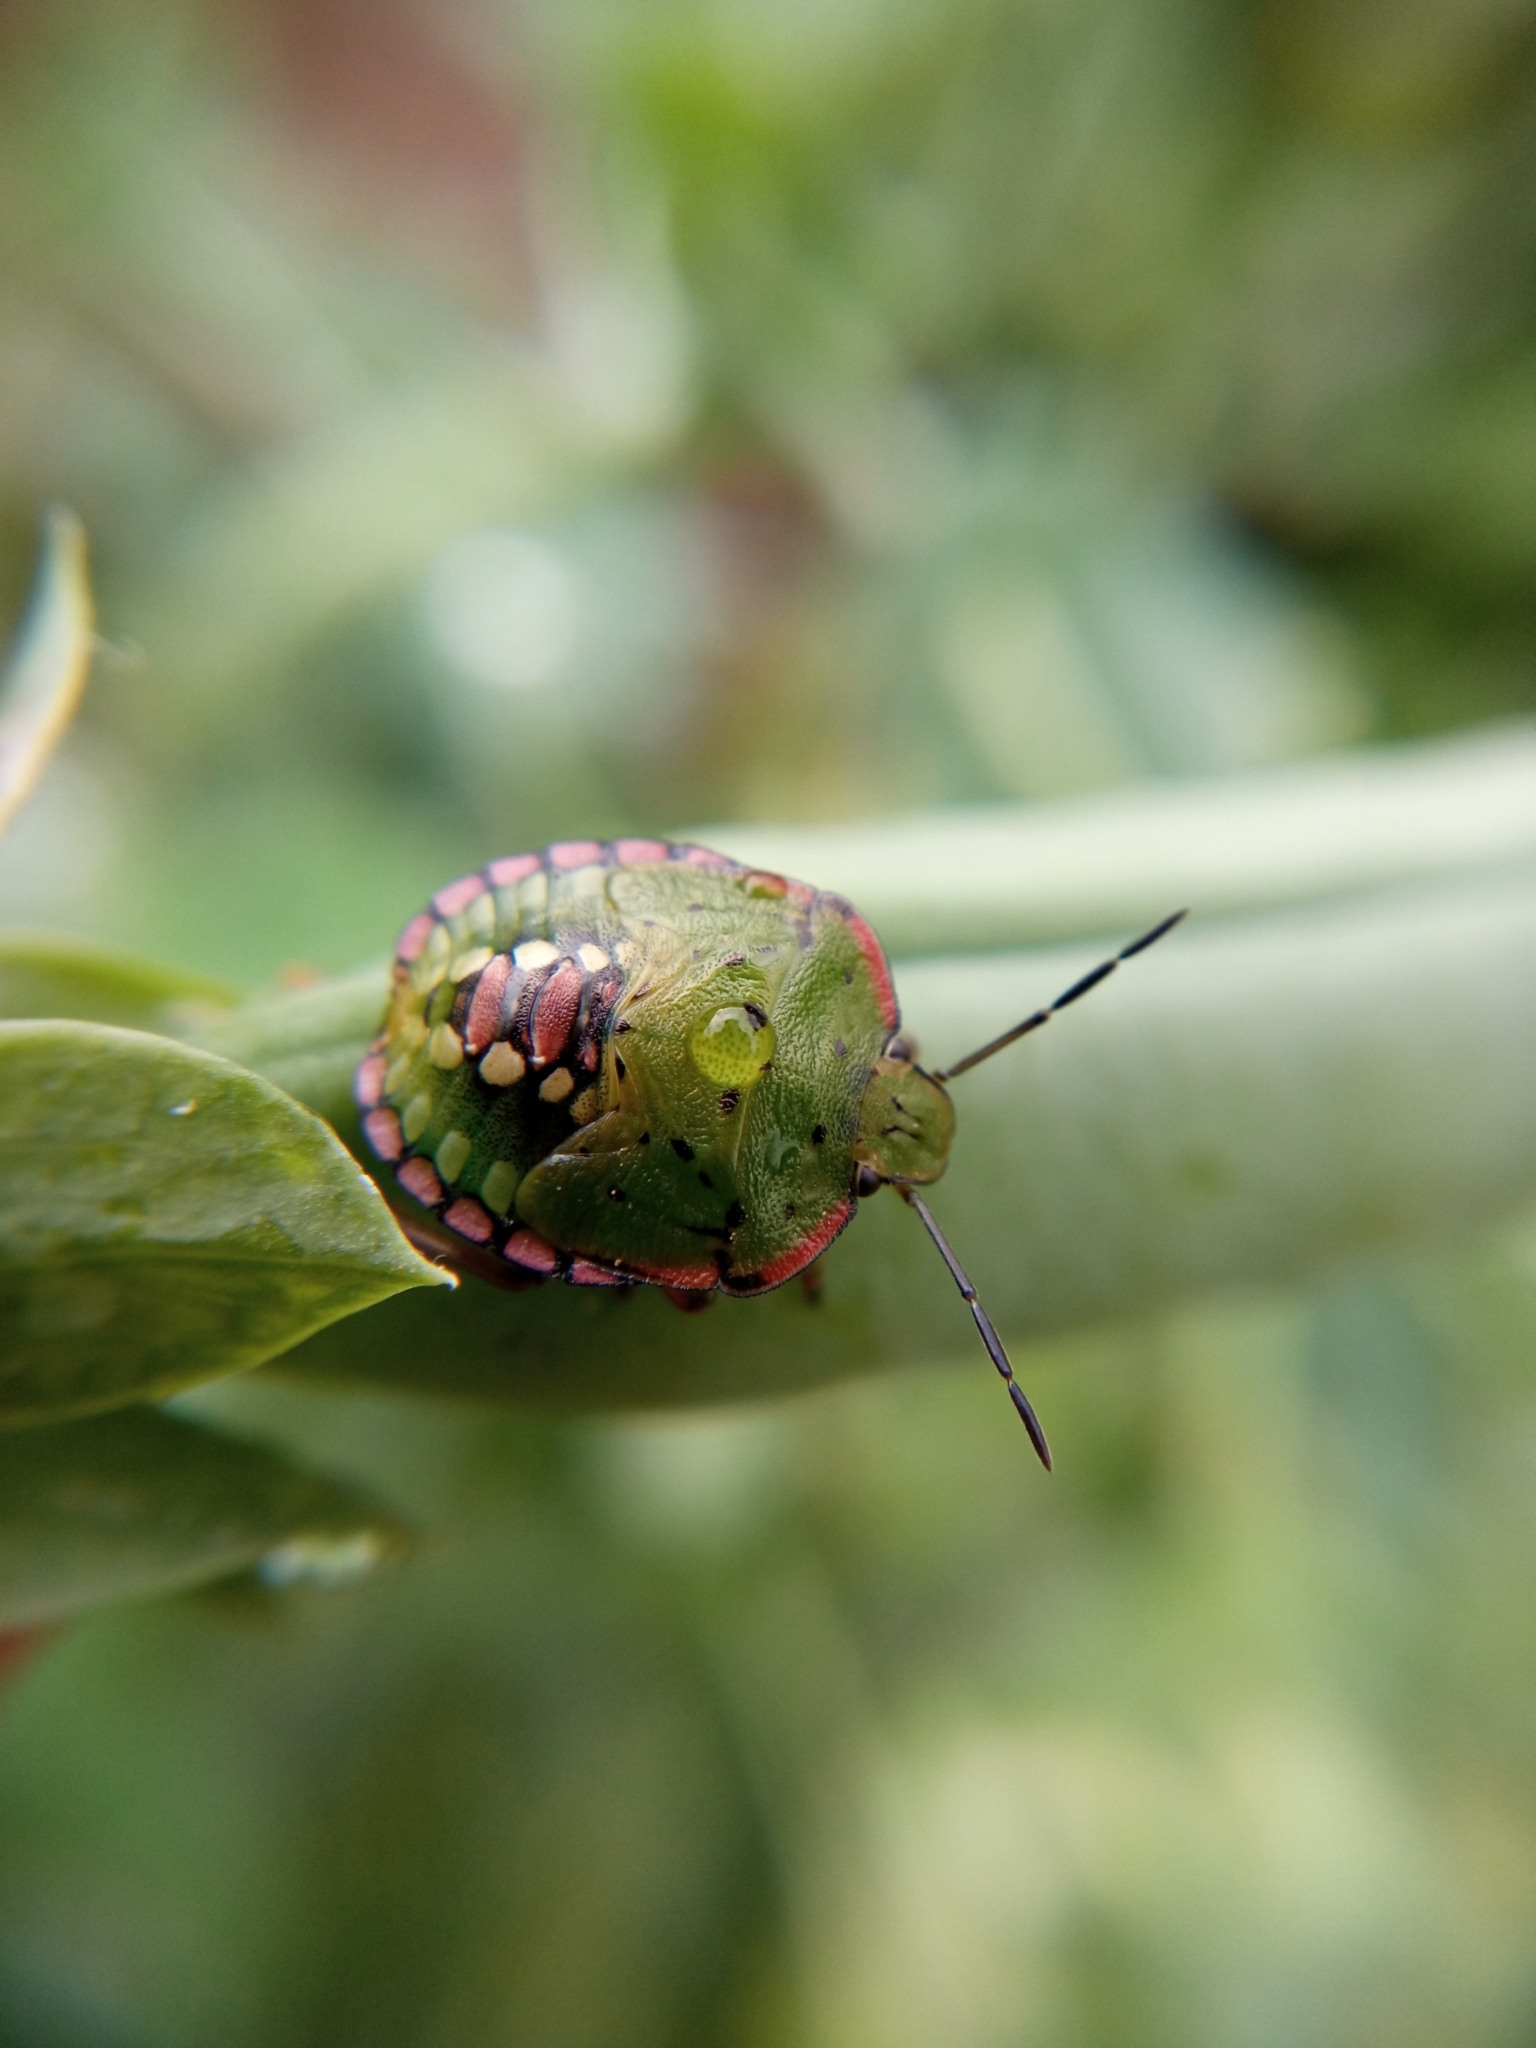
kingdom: Animalia
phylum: Arthropoda
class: Insecta
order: Hemiptera
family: Pentatomidae
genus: Nezara
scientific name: Nezara viridula
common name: Southern green stink bug
